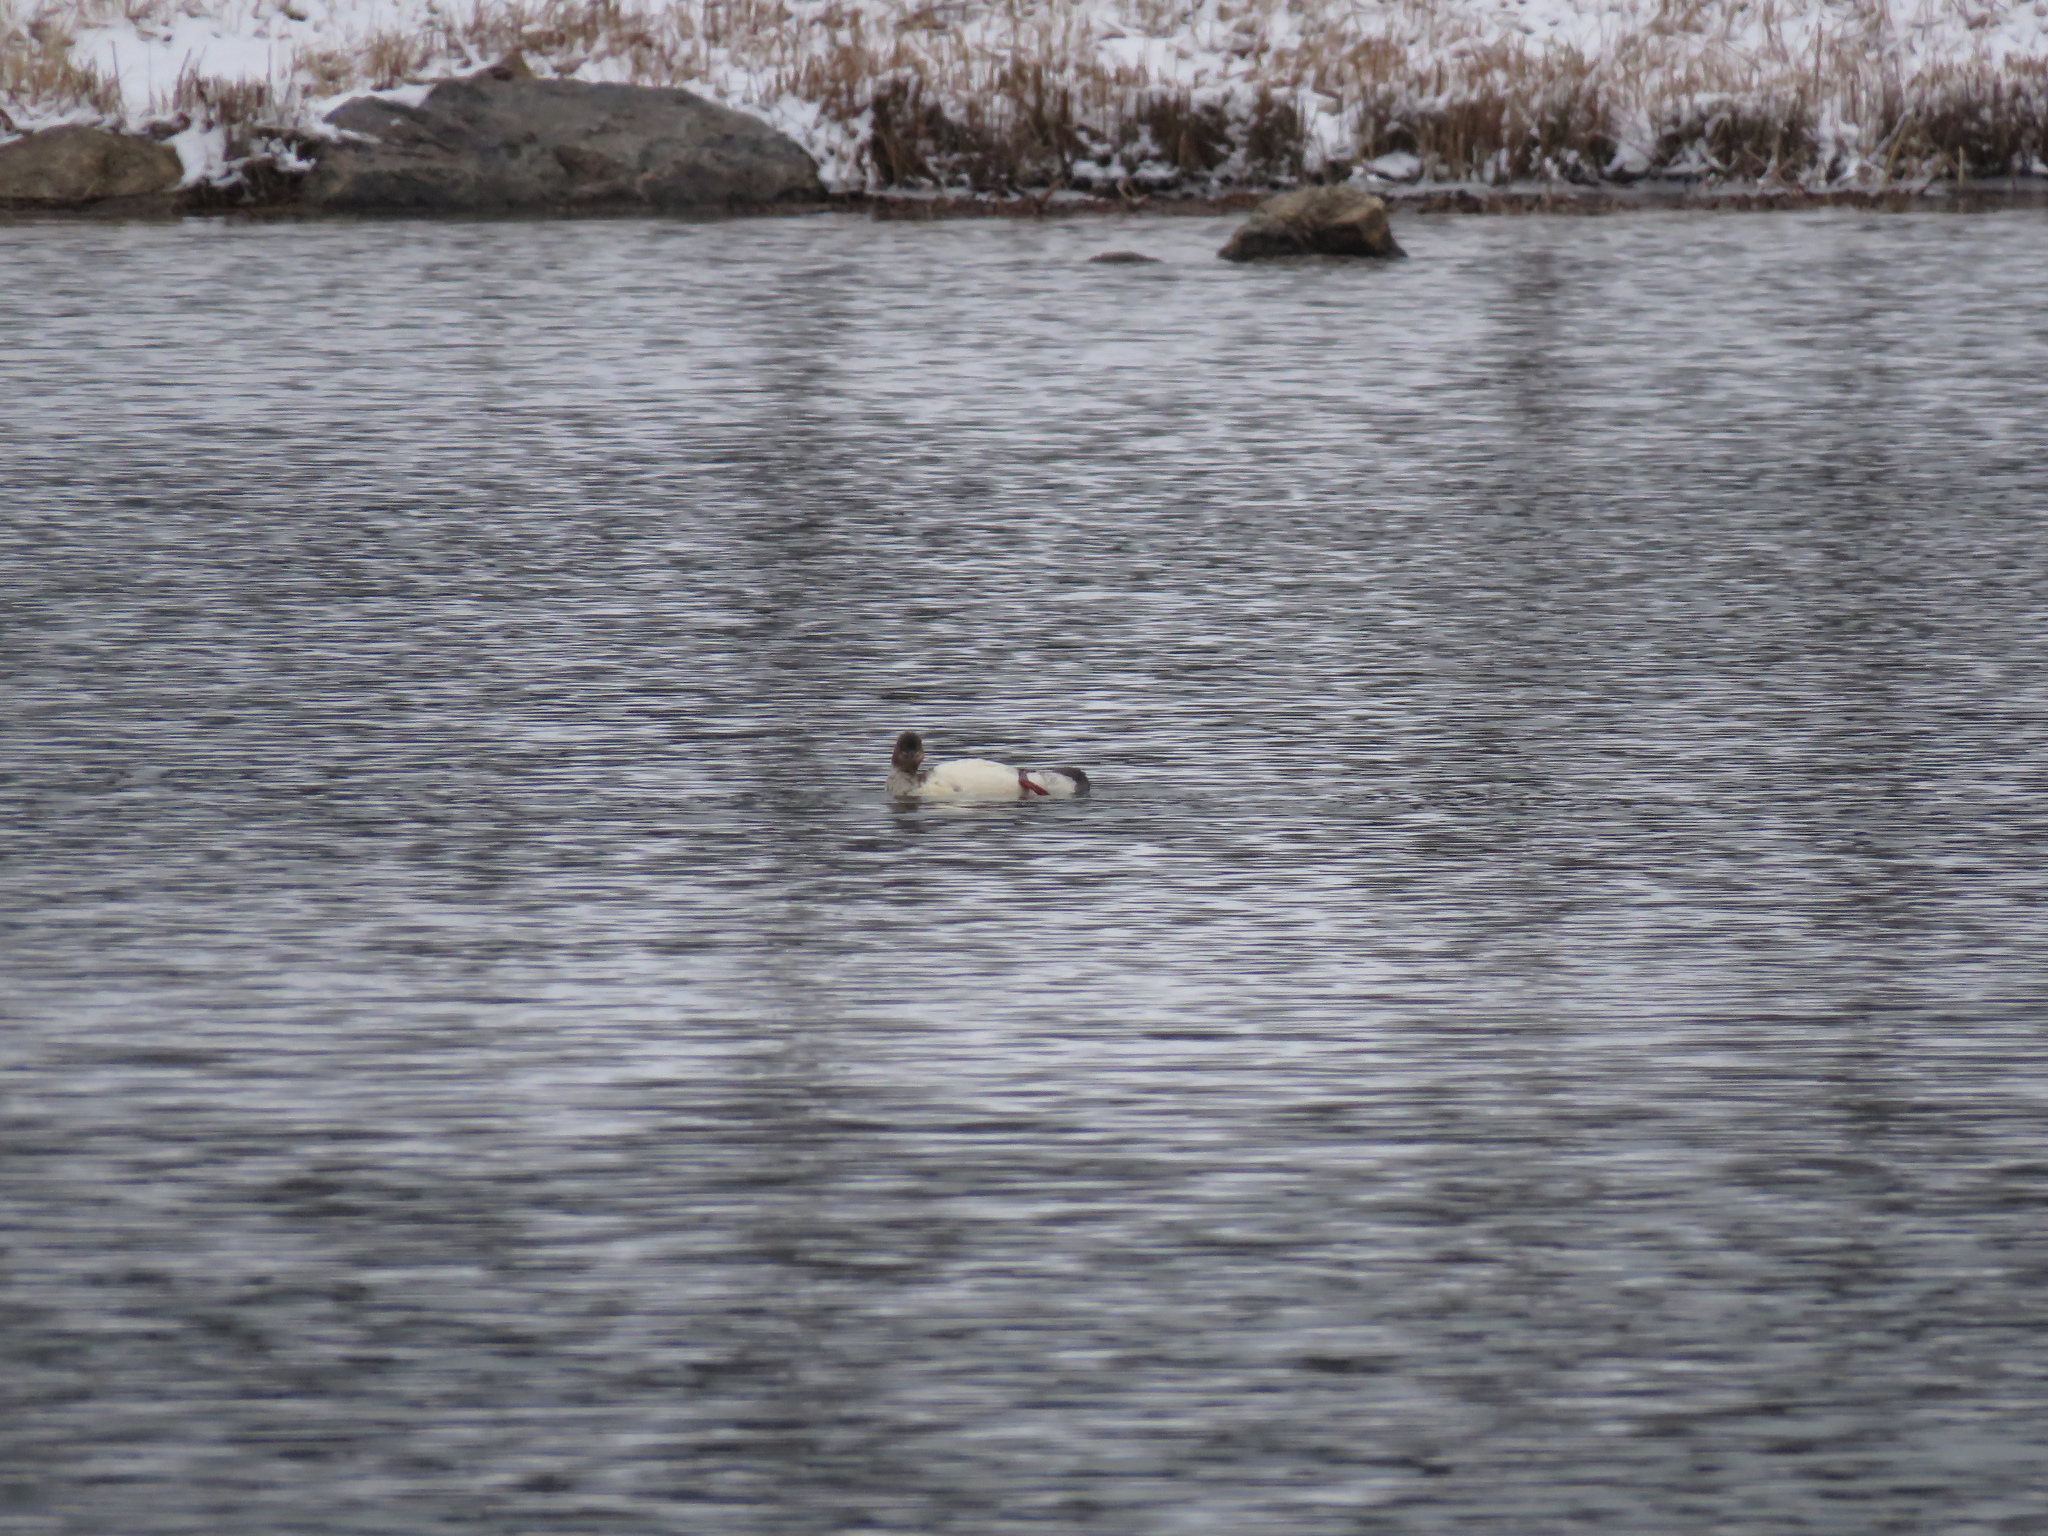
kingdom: Animalia
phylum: Chordata
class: Aves
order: Anseriformes
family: Anatidae
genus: Mergus
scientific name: Mergus serrator
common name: Red-breasted merganser
